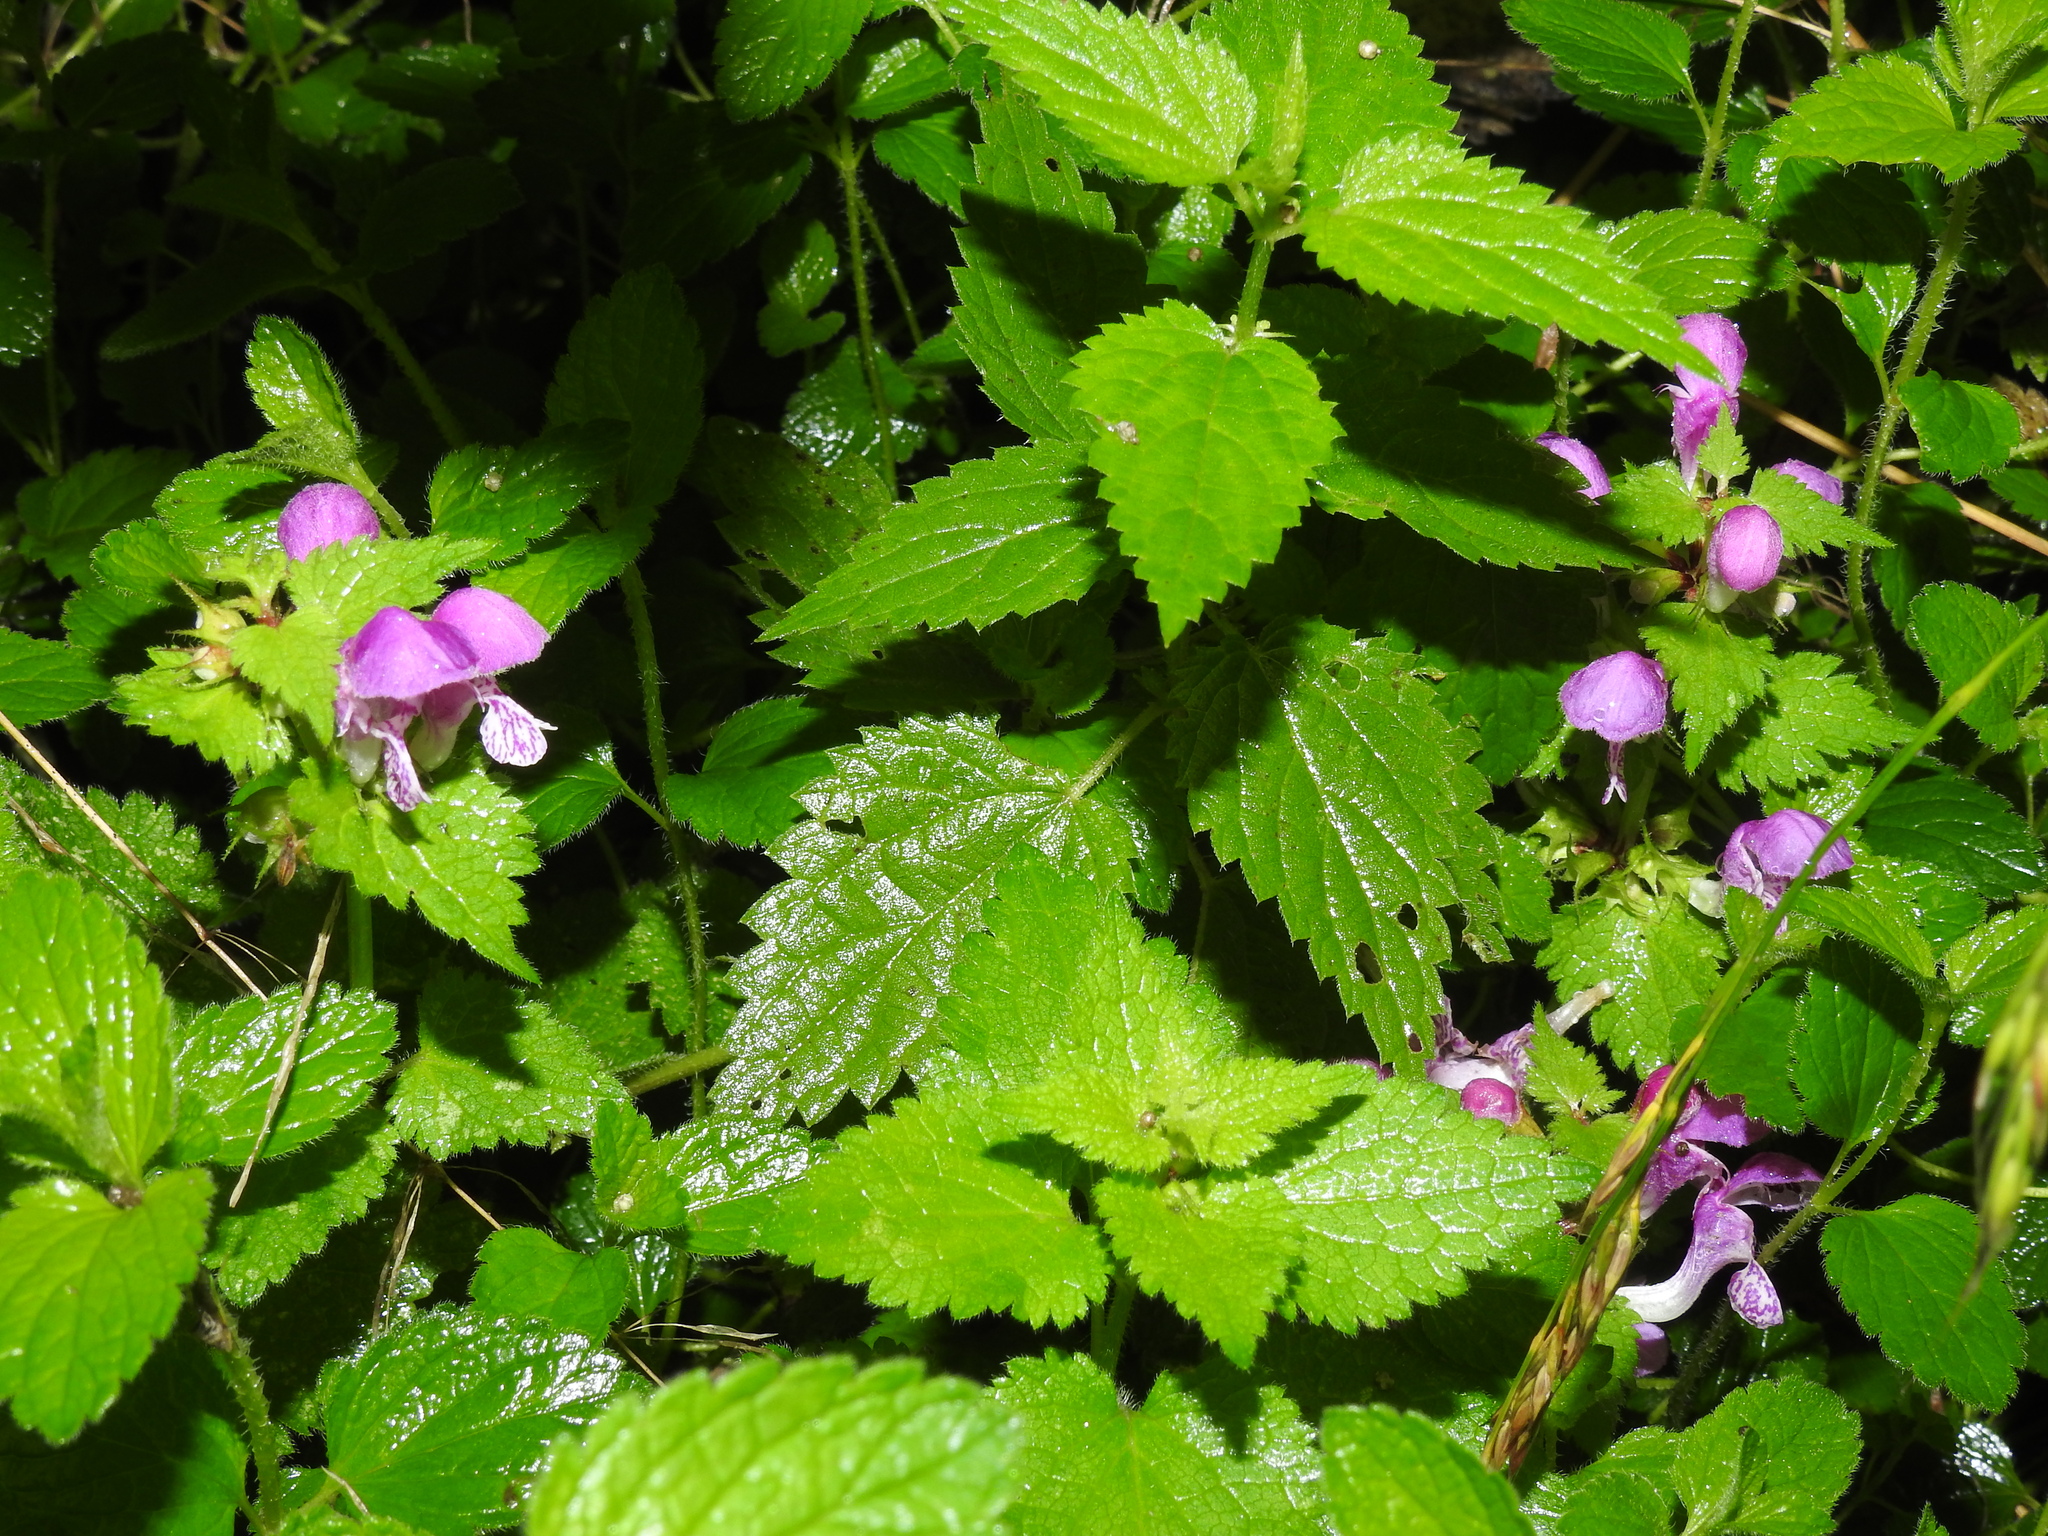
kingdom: Plantae
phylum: Tracheophyta
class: Magnoliopsida
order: Lamiales
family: Lamiaceae
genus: Lamium
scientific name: Lamium maculatum
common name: Spotted dead-nettle
